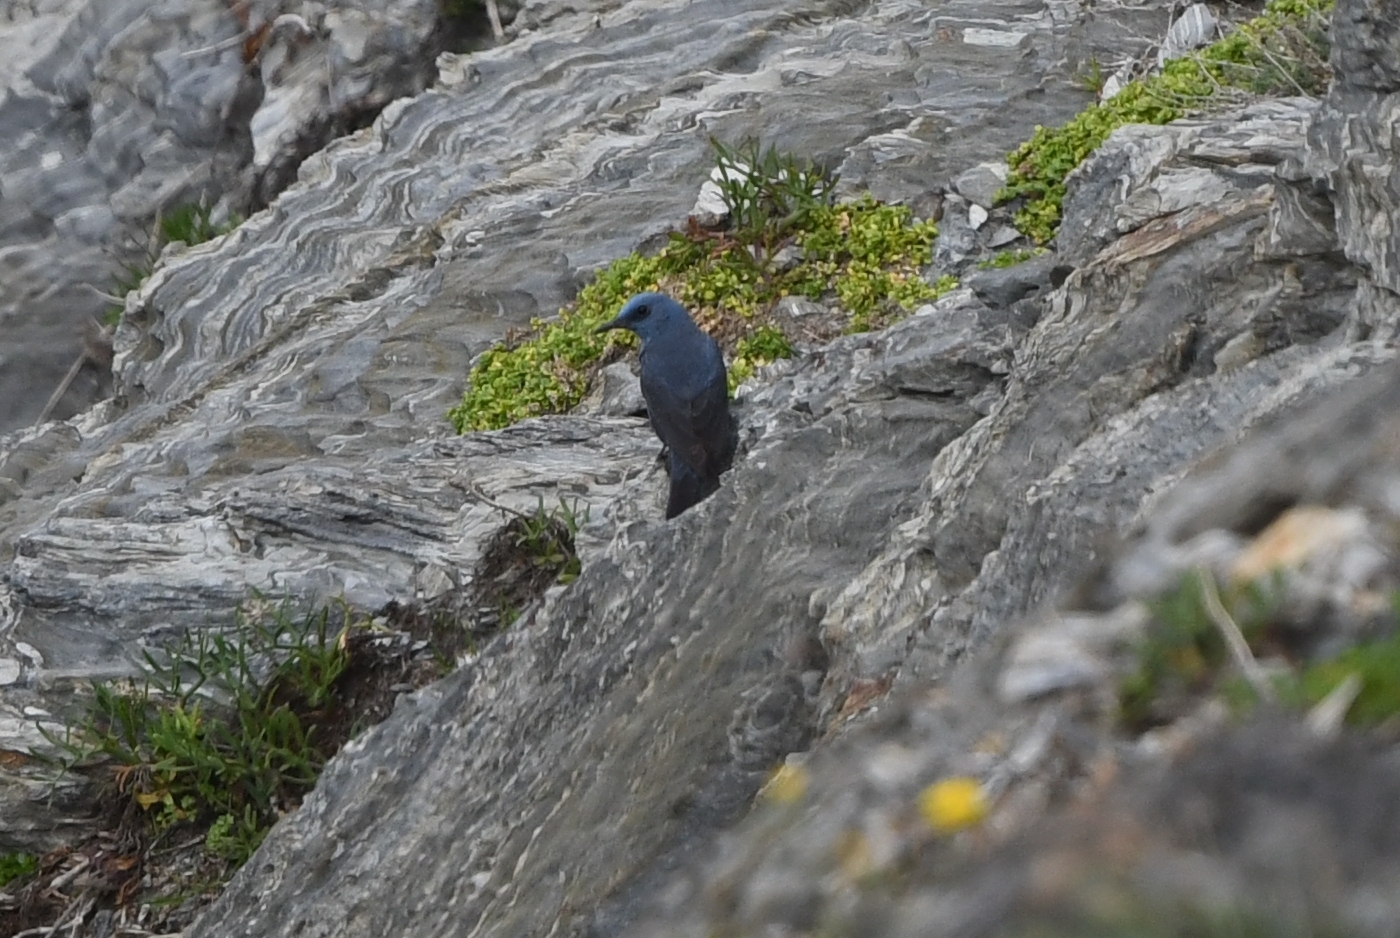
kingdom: Animalia
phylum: Chordata
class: Aves
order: Passeriformes
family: Muscicapidae
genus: Monticola
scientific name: Monticola solitarius
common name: Blue rock thrush
